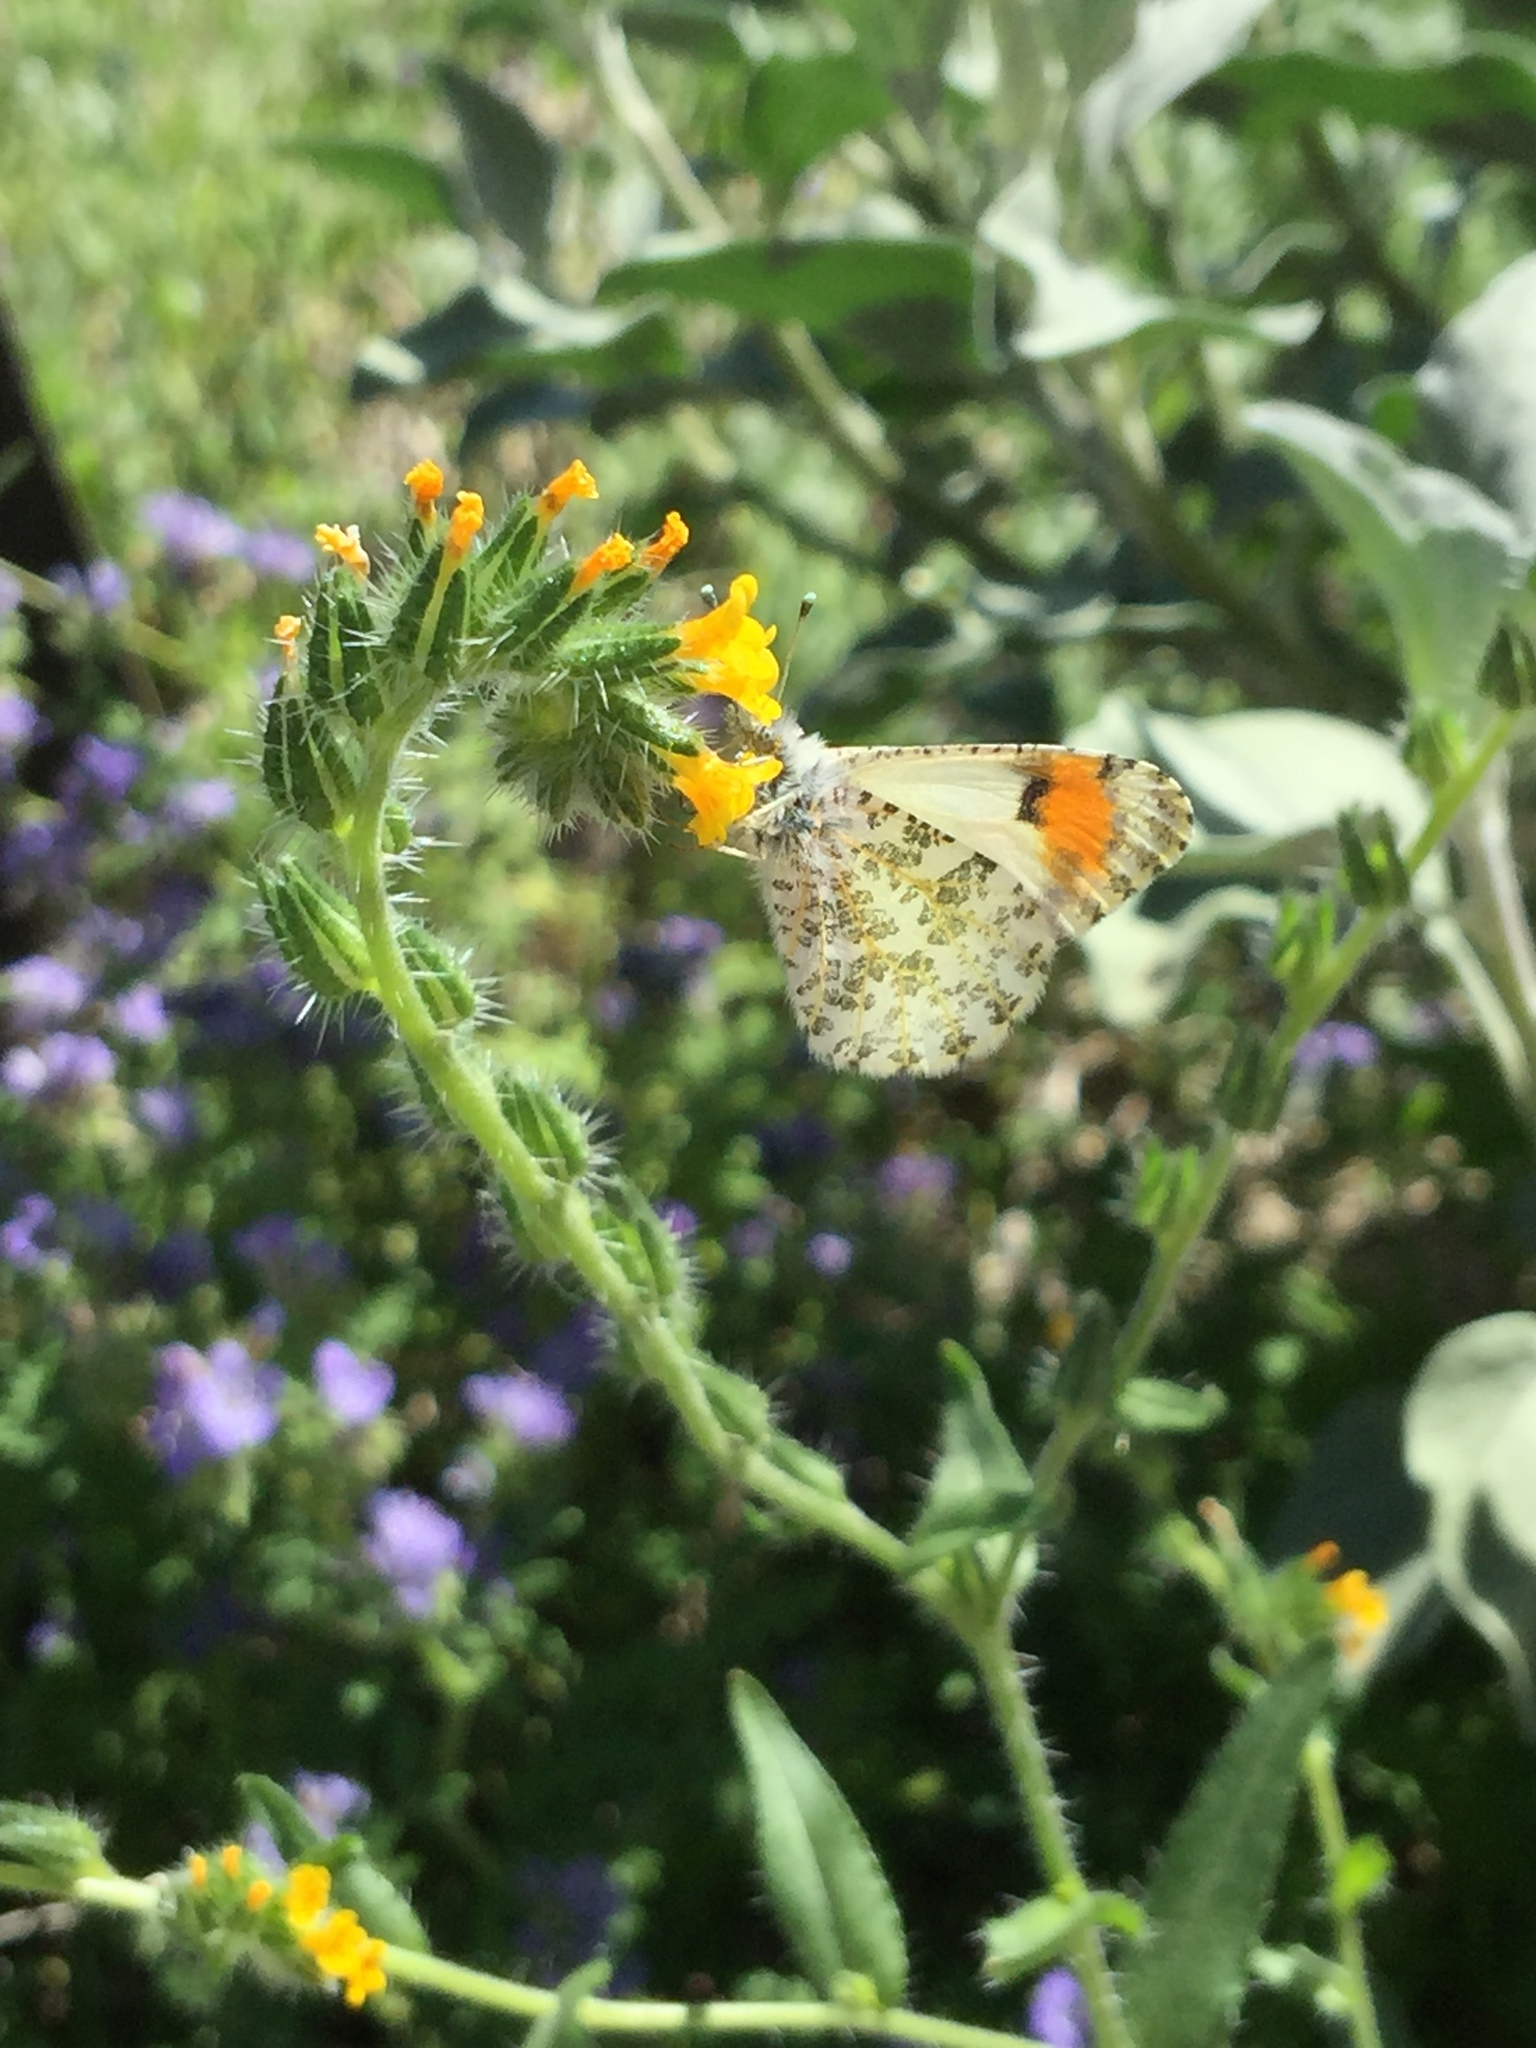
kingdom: Animalia
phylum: Arthropoda
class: Insecta
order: Lepidoptera
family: Pieridae
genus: Anthocharis
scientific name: Anthocharis sara
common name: Sara's orangetip
